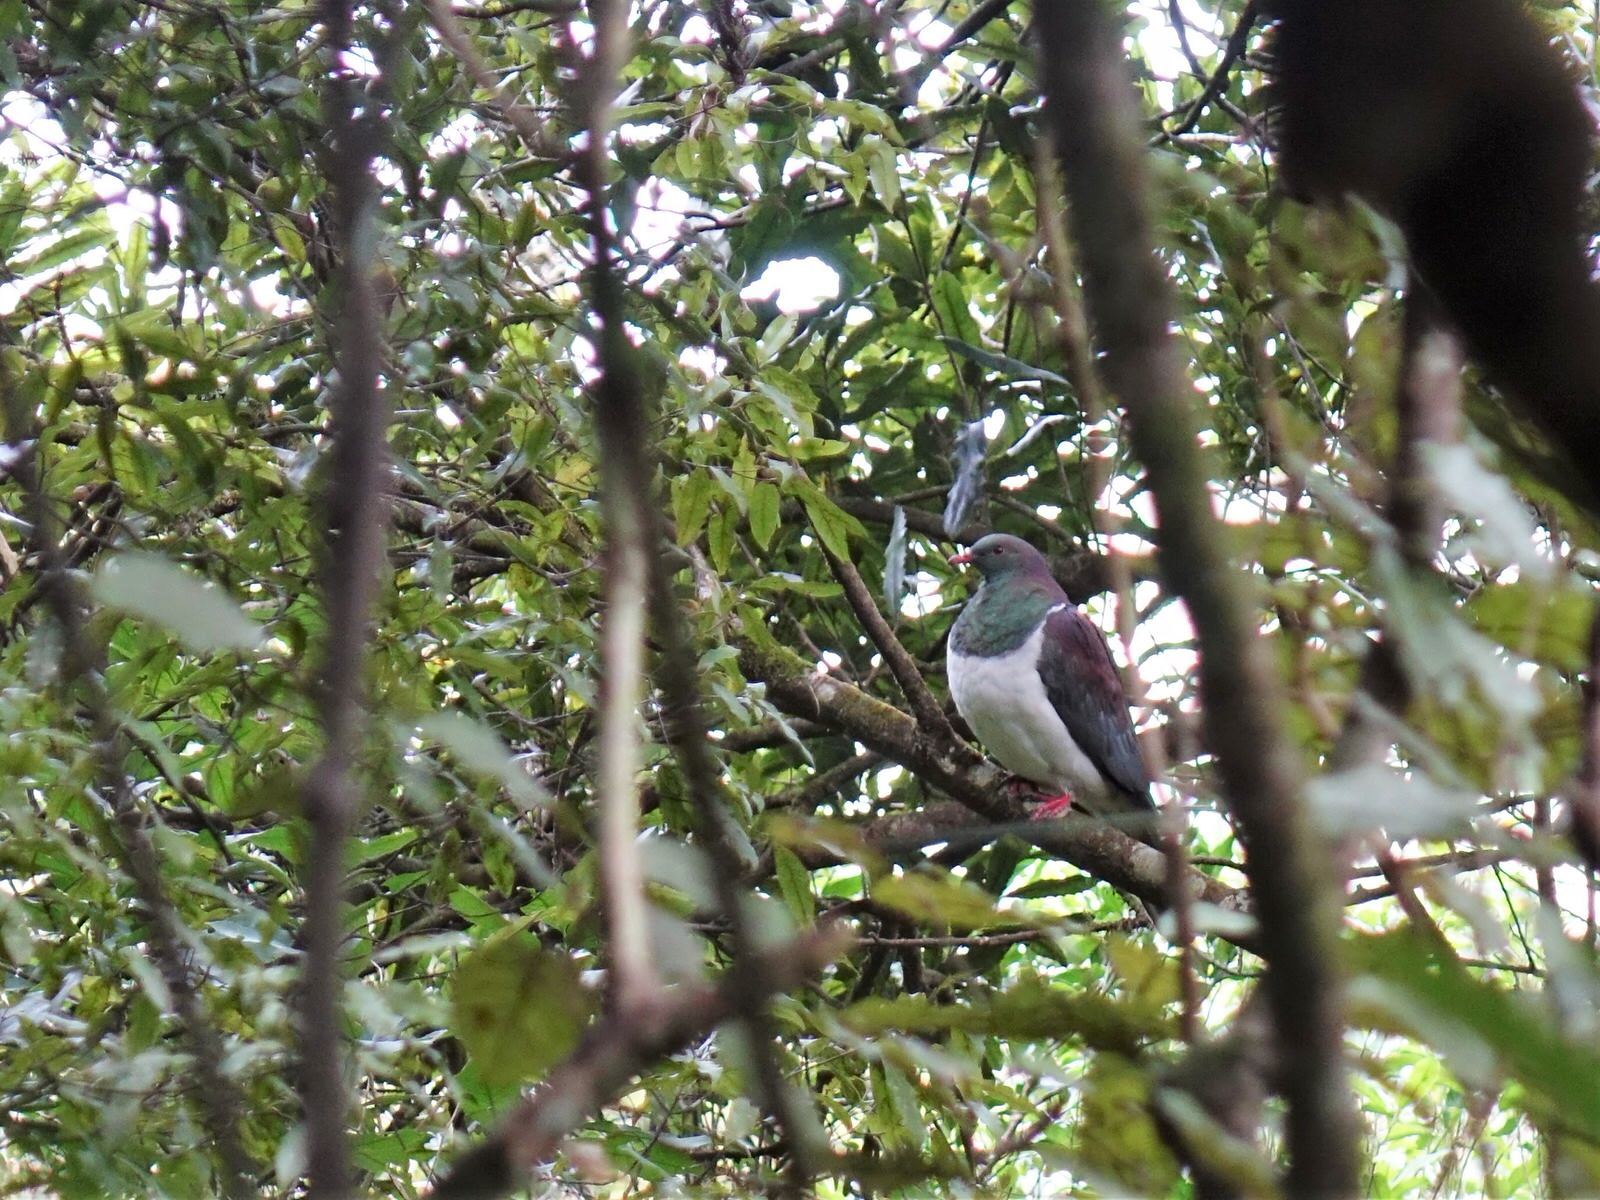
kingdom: Animalia
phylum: Chordata
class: Aves
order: Columbiformes
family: Columbidae
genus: Hemiphaga
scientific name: Hemiphaga novaeseelandiae
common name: New zealand pigeon
